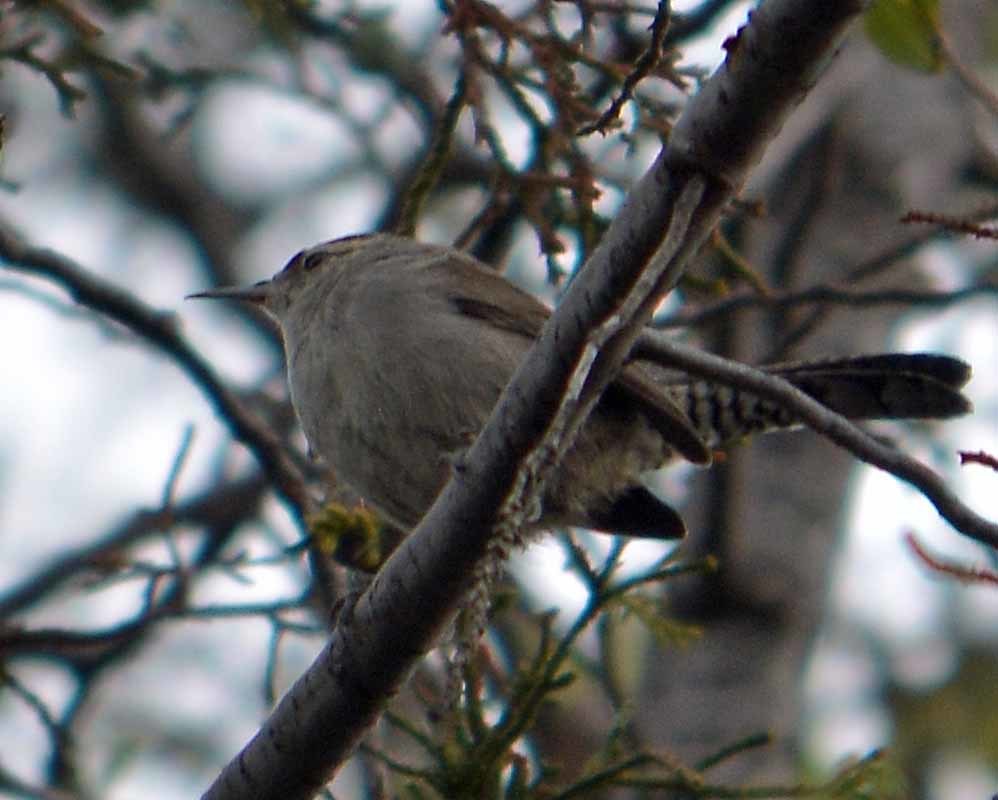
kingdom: Animalia
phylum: Chordata
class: Aves
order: Passeriformes
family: Troglodytidae
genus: Thryomanes
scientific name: Thryomanes bewickii
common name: Bewick's wren
